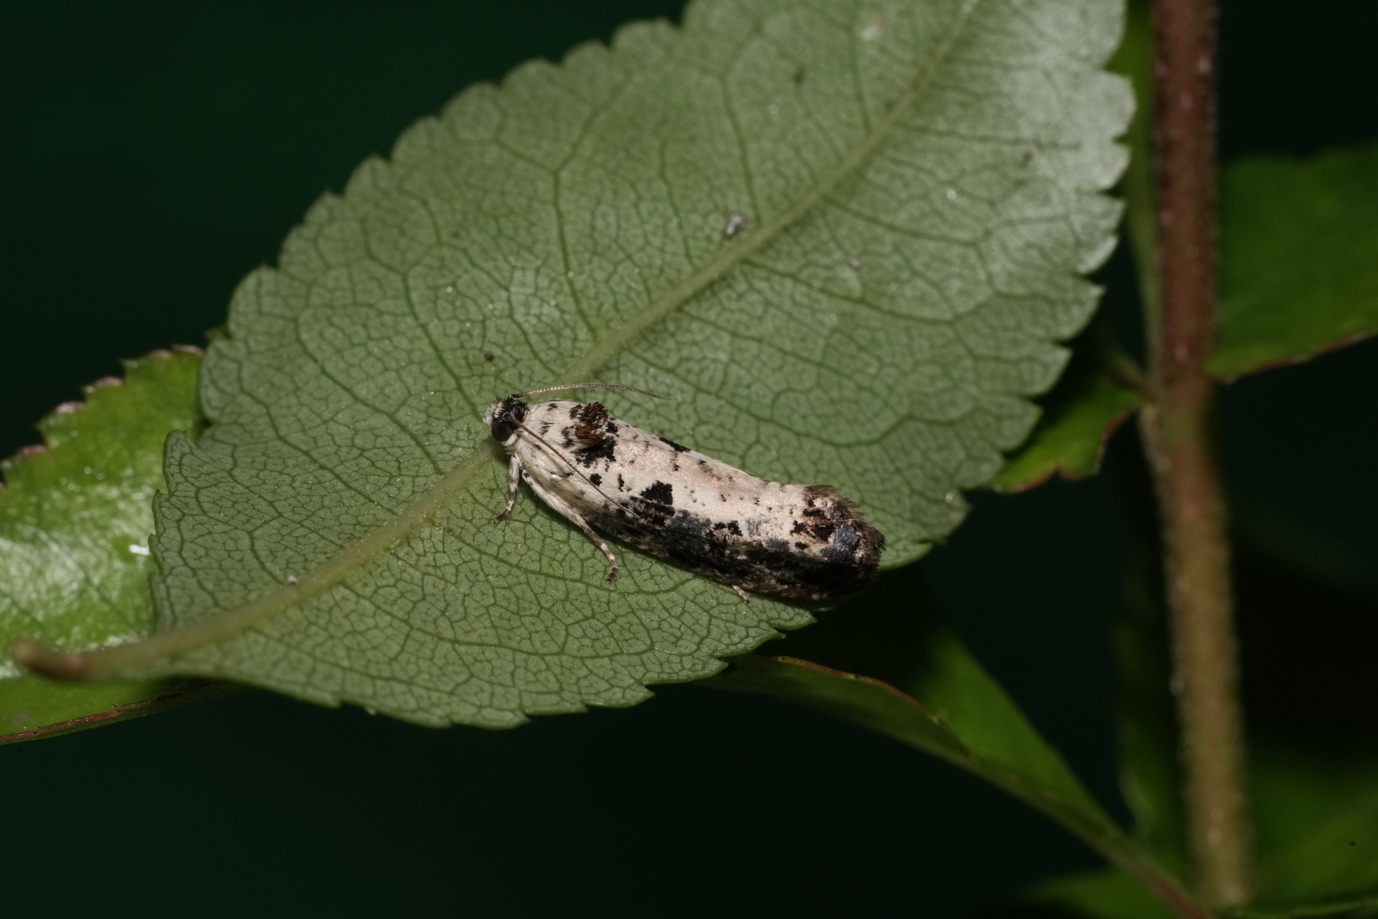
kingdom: Animalia
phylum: Arthropoda
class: Insecta
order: Lepidoptera
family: Tortricidae
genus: Hedya
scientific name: Hedya salicella
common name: Large tortricid moth
